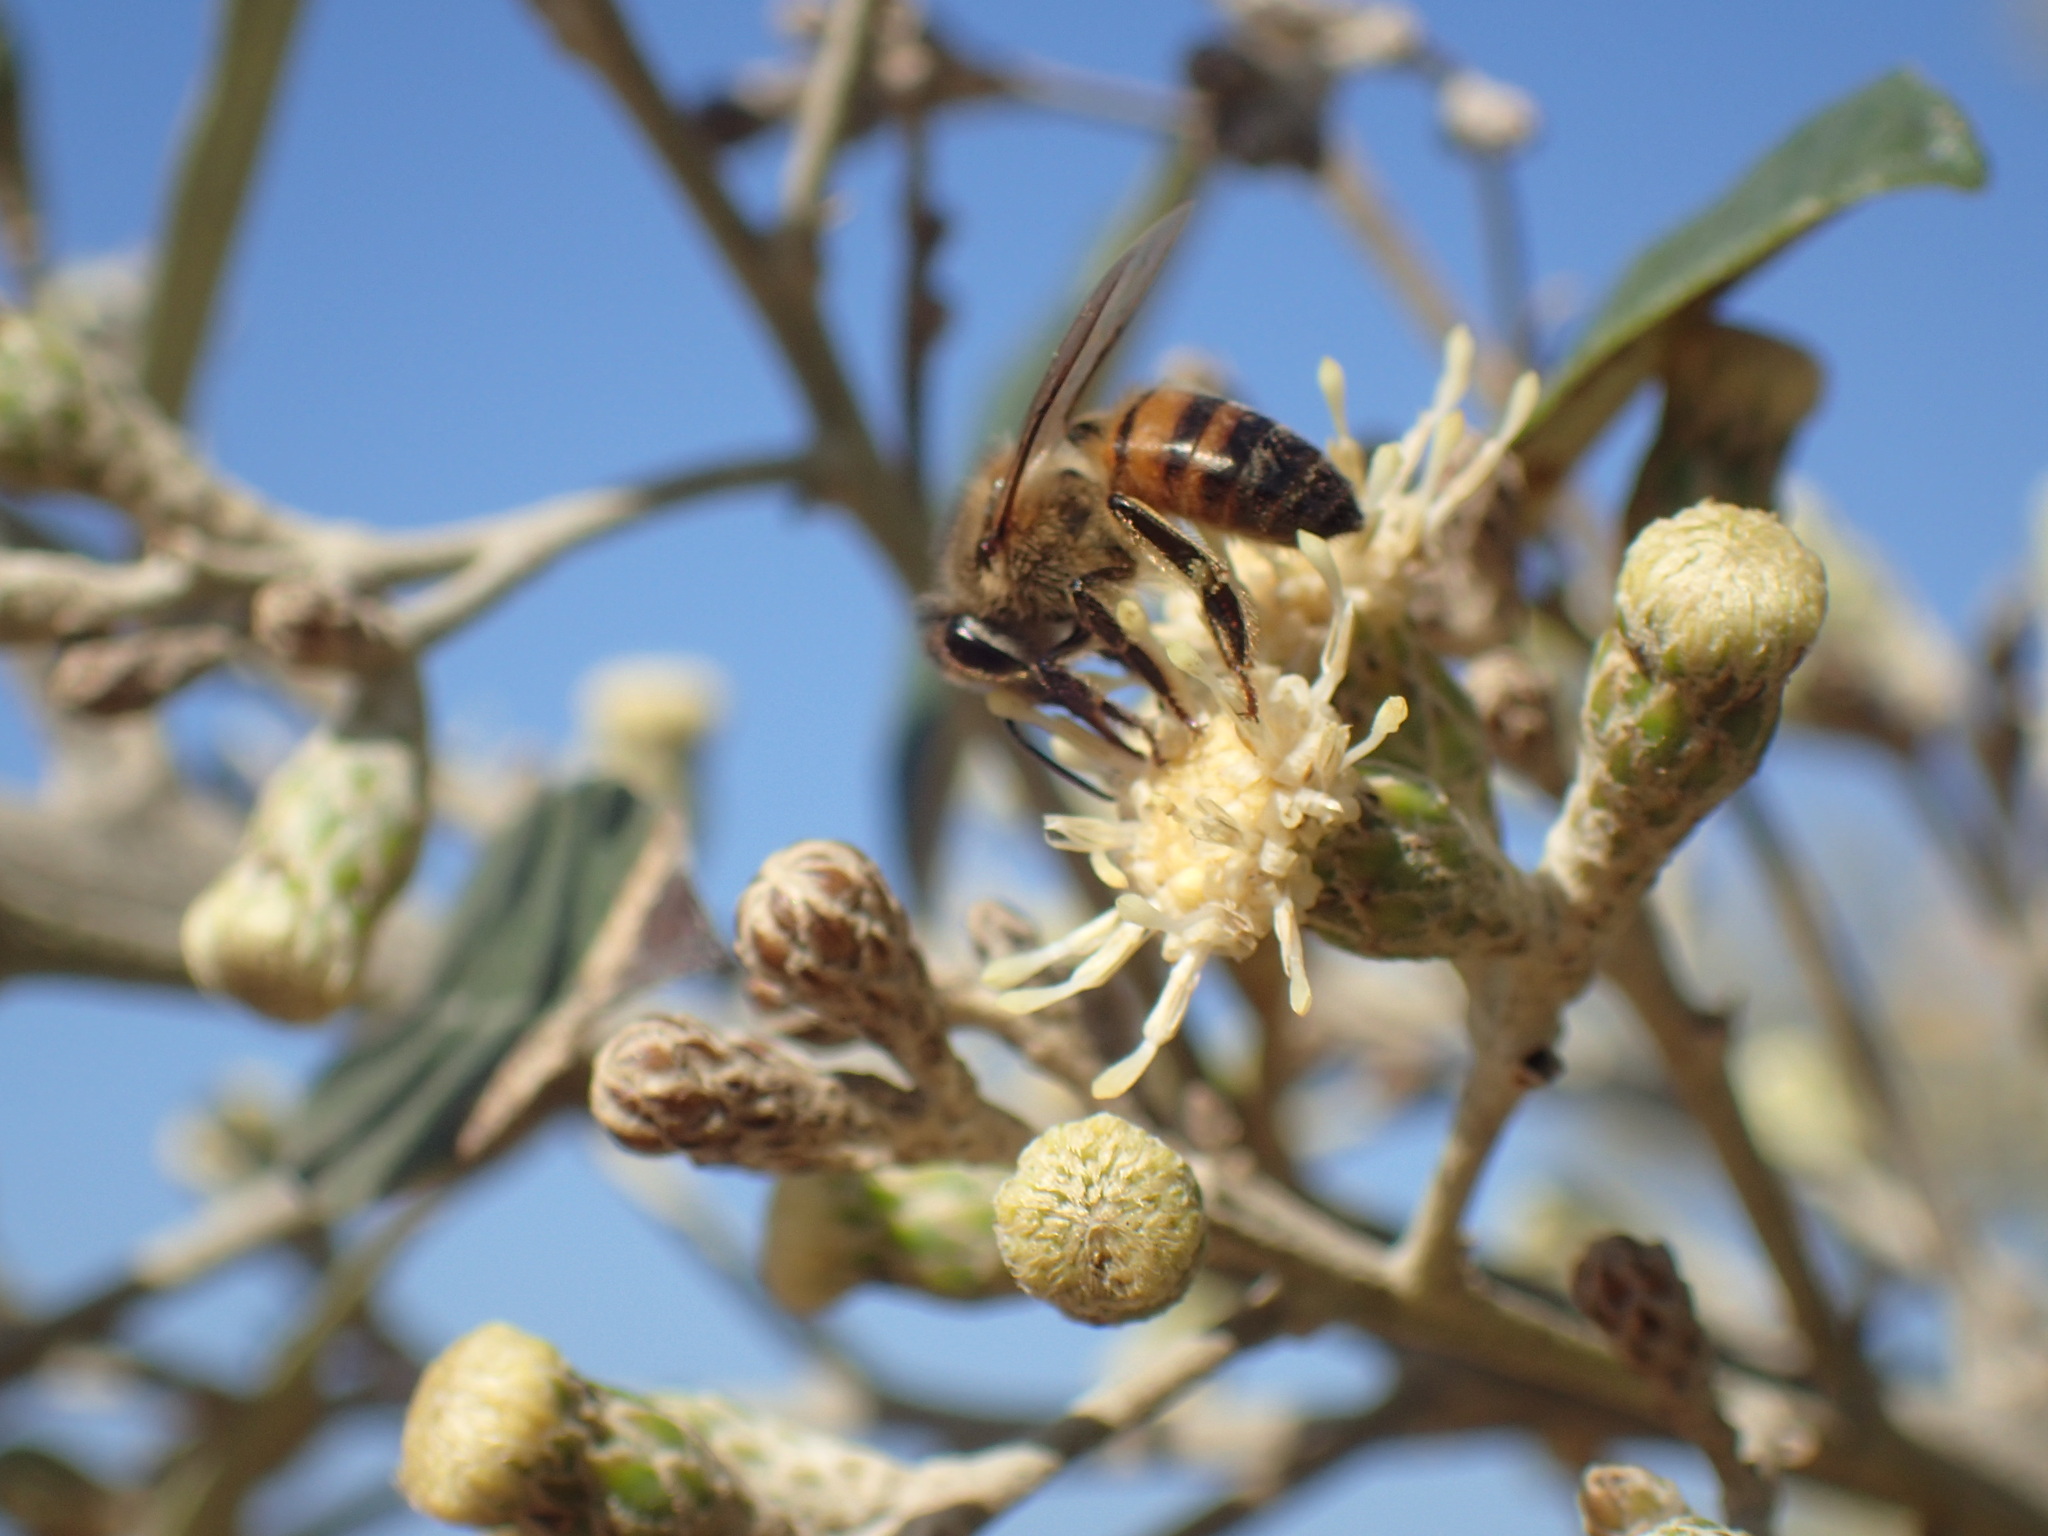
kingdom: Animalia
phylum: Arthropoda
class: Insecta
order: Hymenoptera
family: Apidae
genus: Apis
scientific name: Apis mellifera
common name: Honey bee
